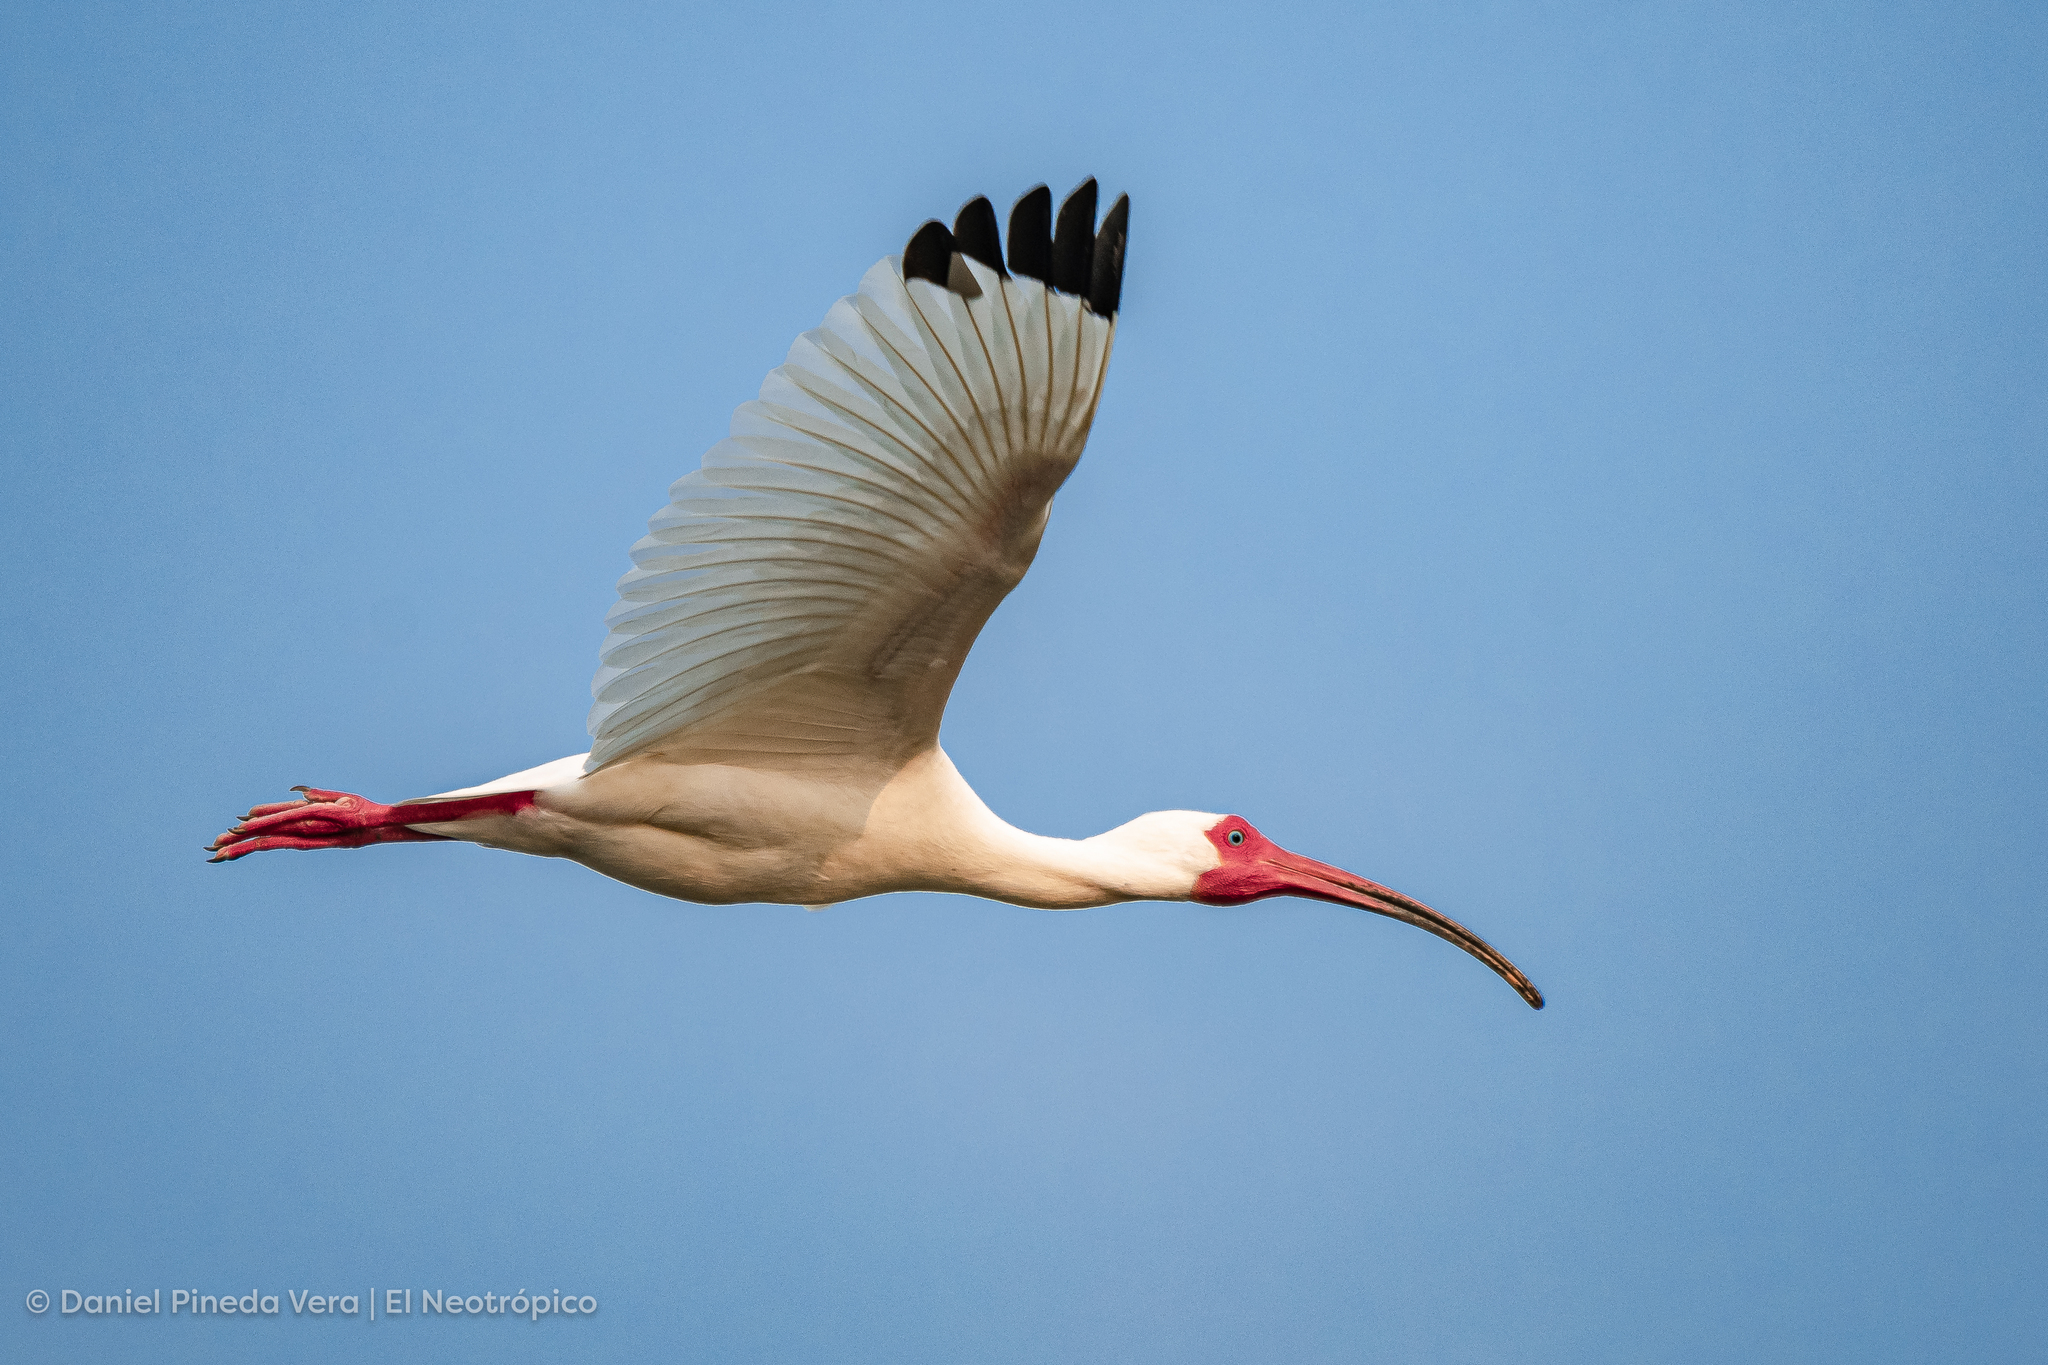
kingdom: Animalia
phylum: Chordata
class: Aves
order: Pelecaniformes
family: Threskiornithidae
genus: Eudocimus
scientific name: Eudocimus albus
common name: White ibis
